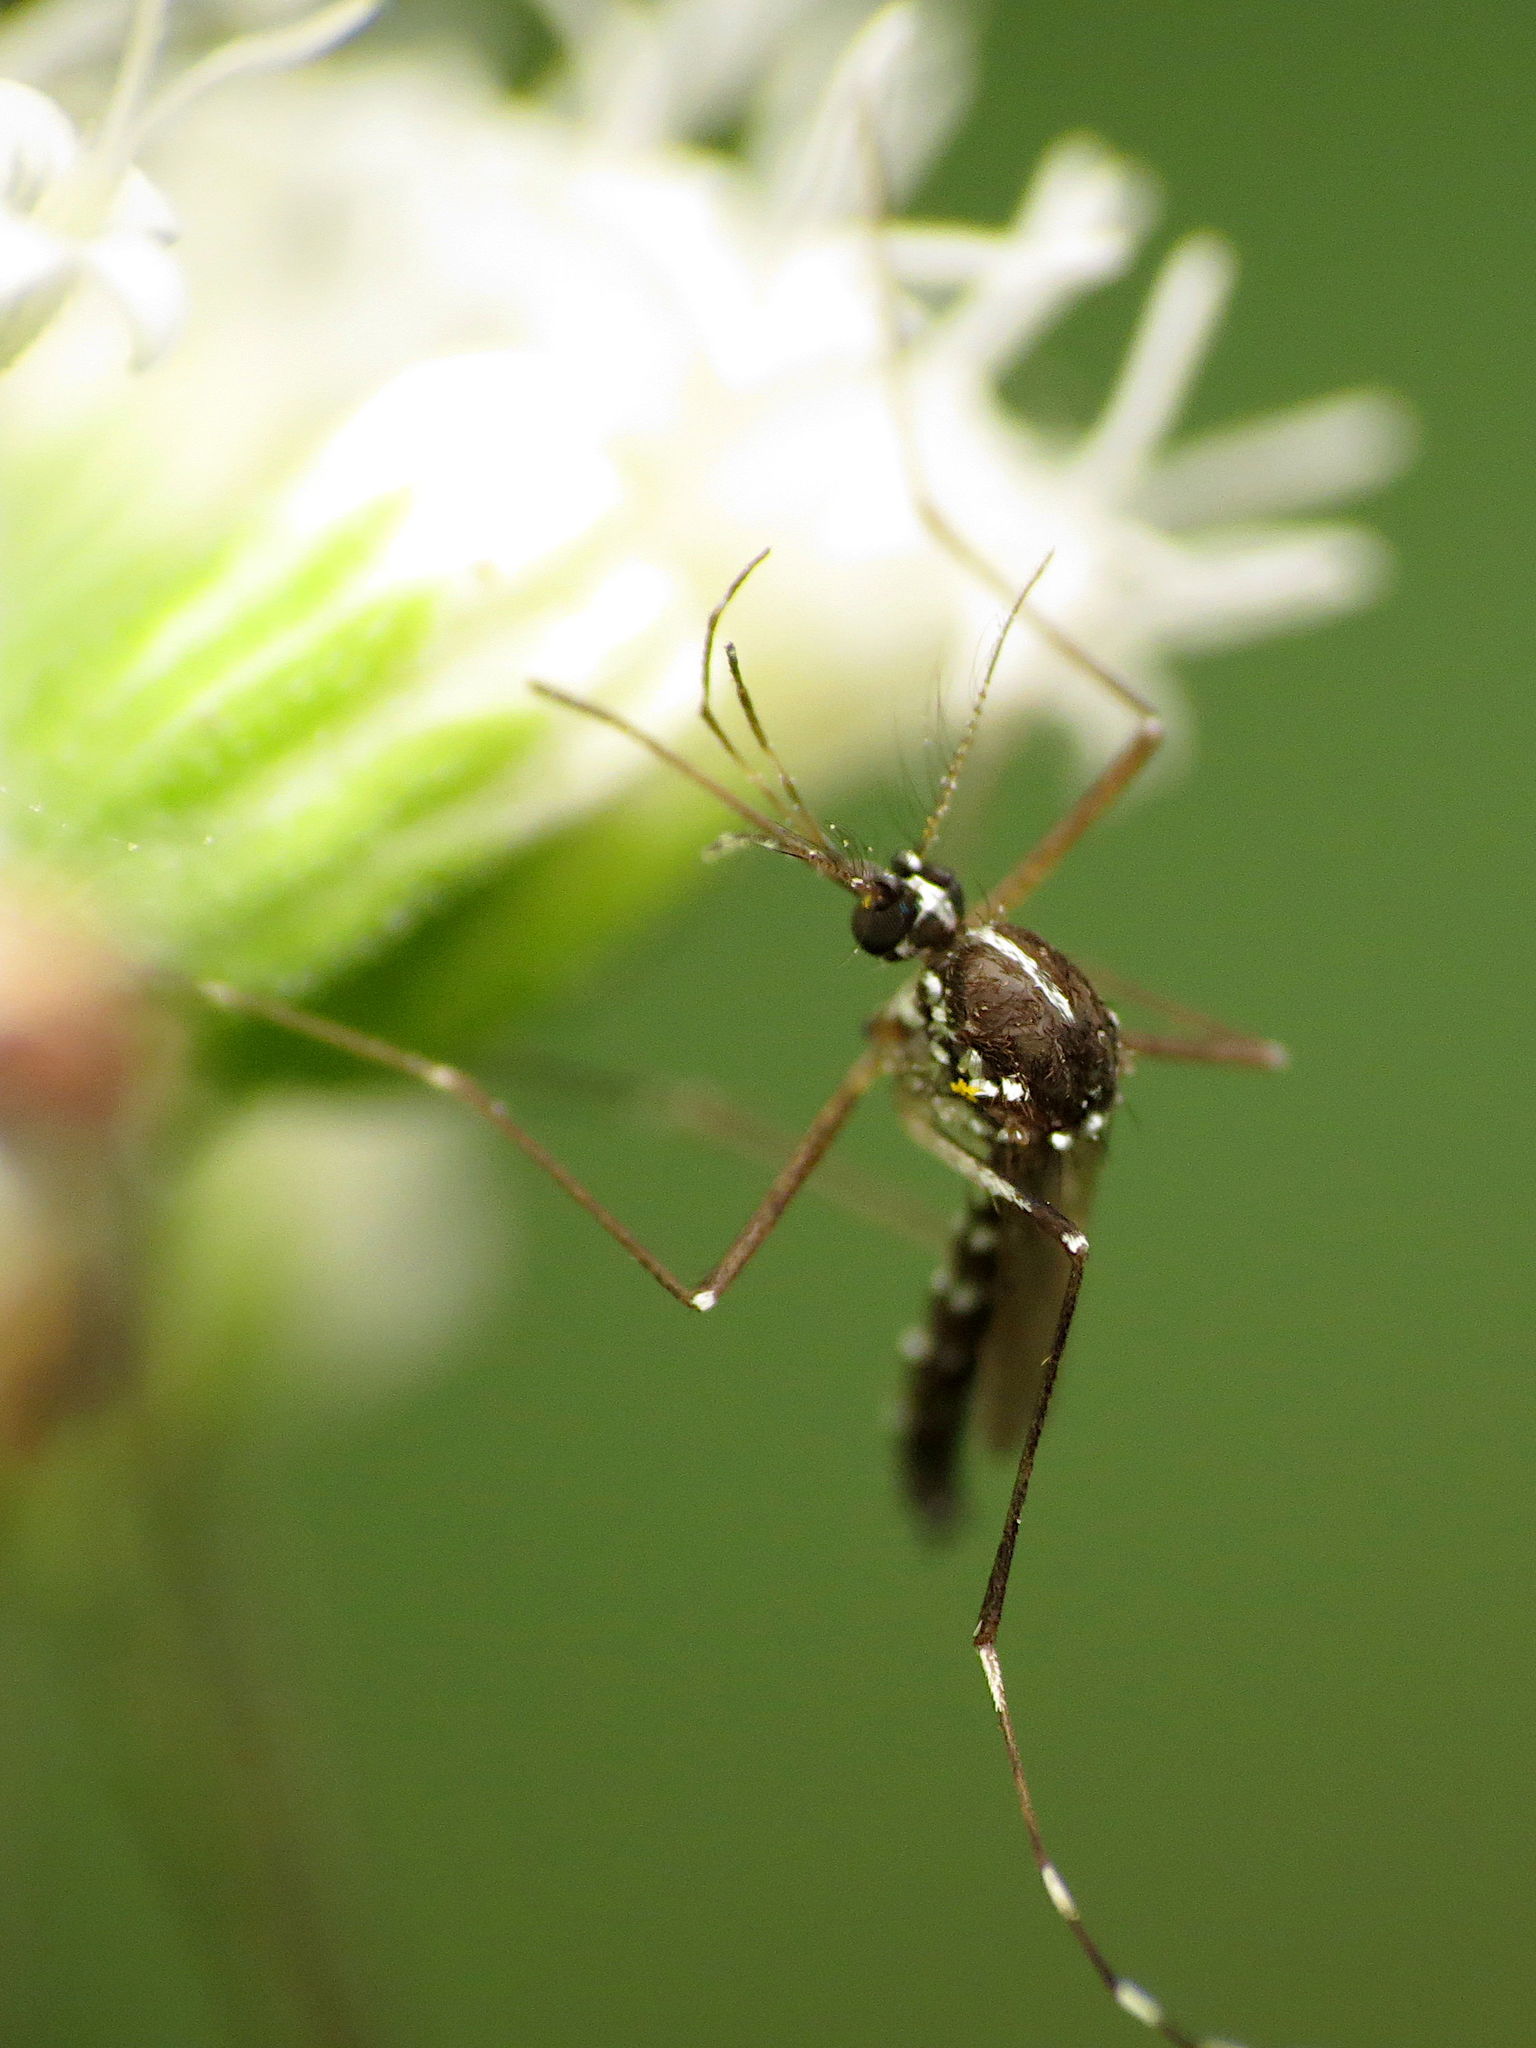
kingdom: Animalia
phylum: Arthropoda
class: Insecta
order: Diptera
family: Culicidae
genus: Aedes
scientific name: Aedes albopictus
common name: Tiger mosquito
